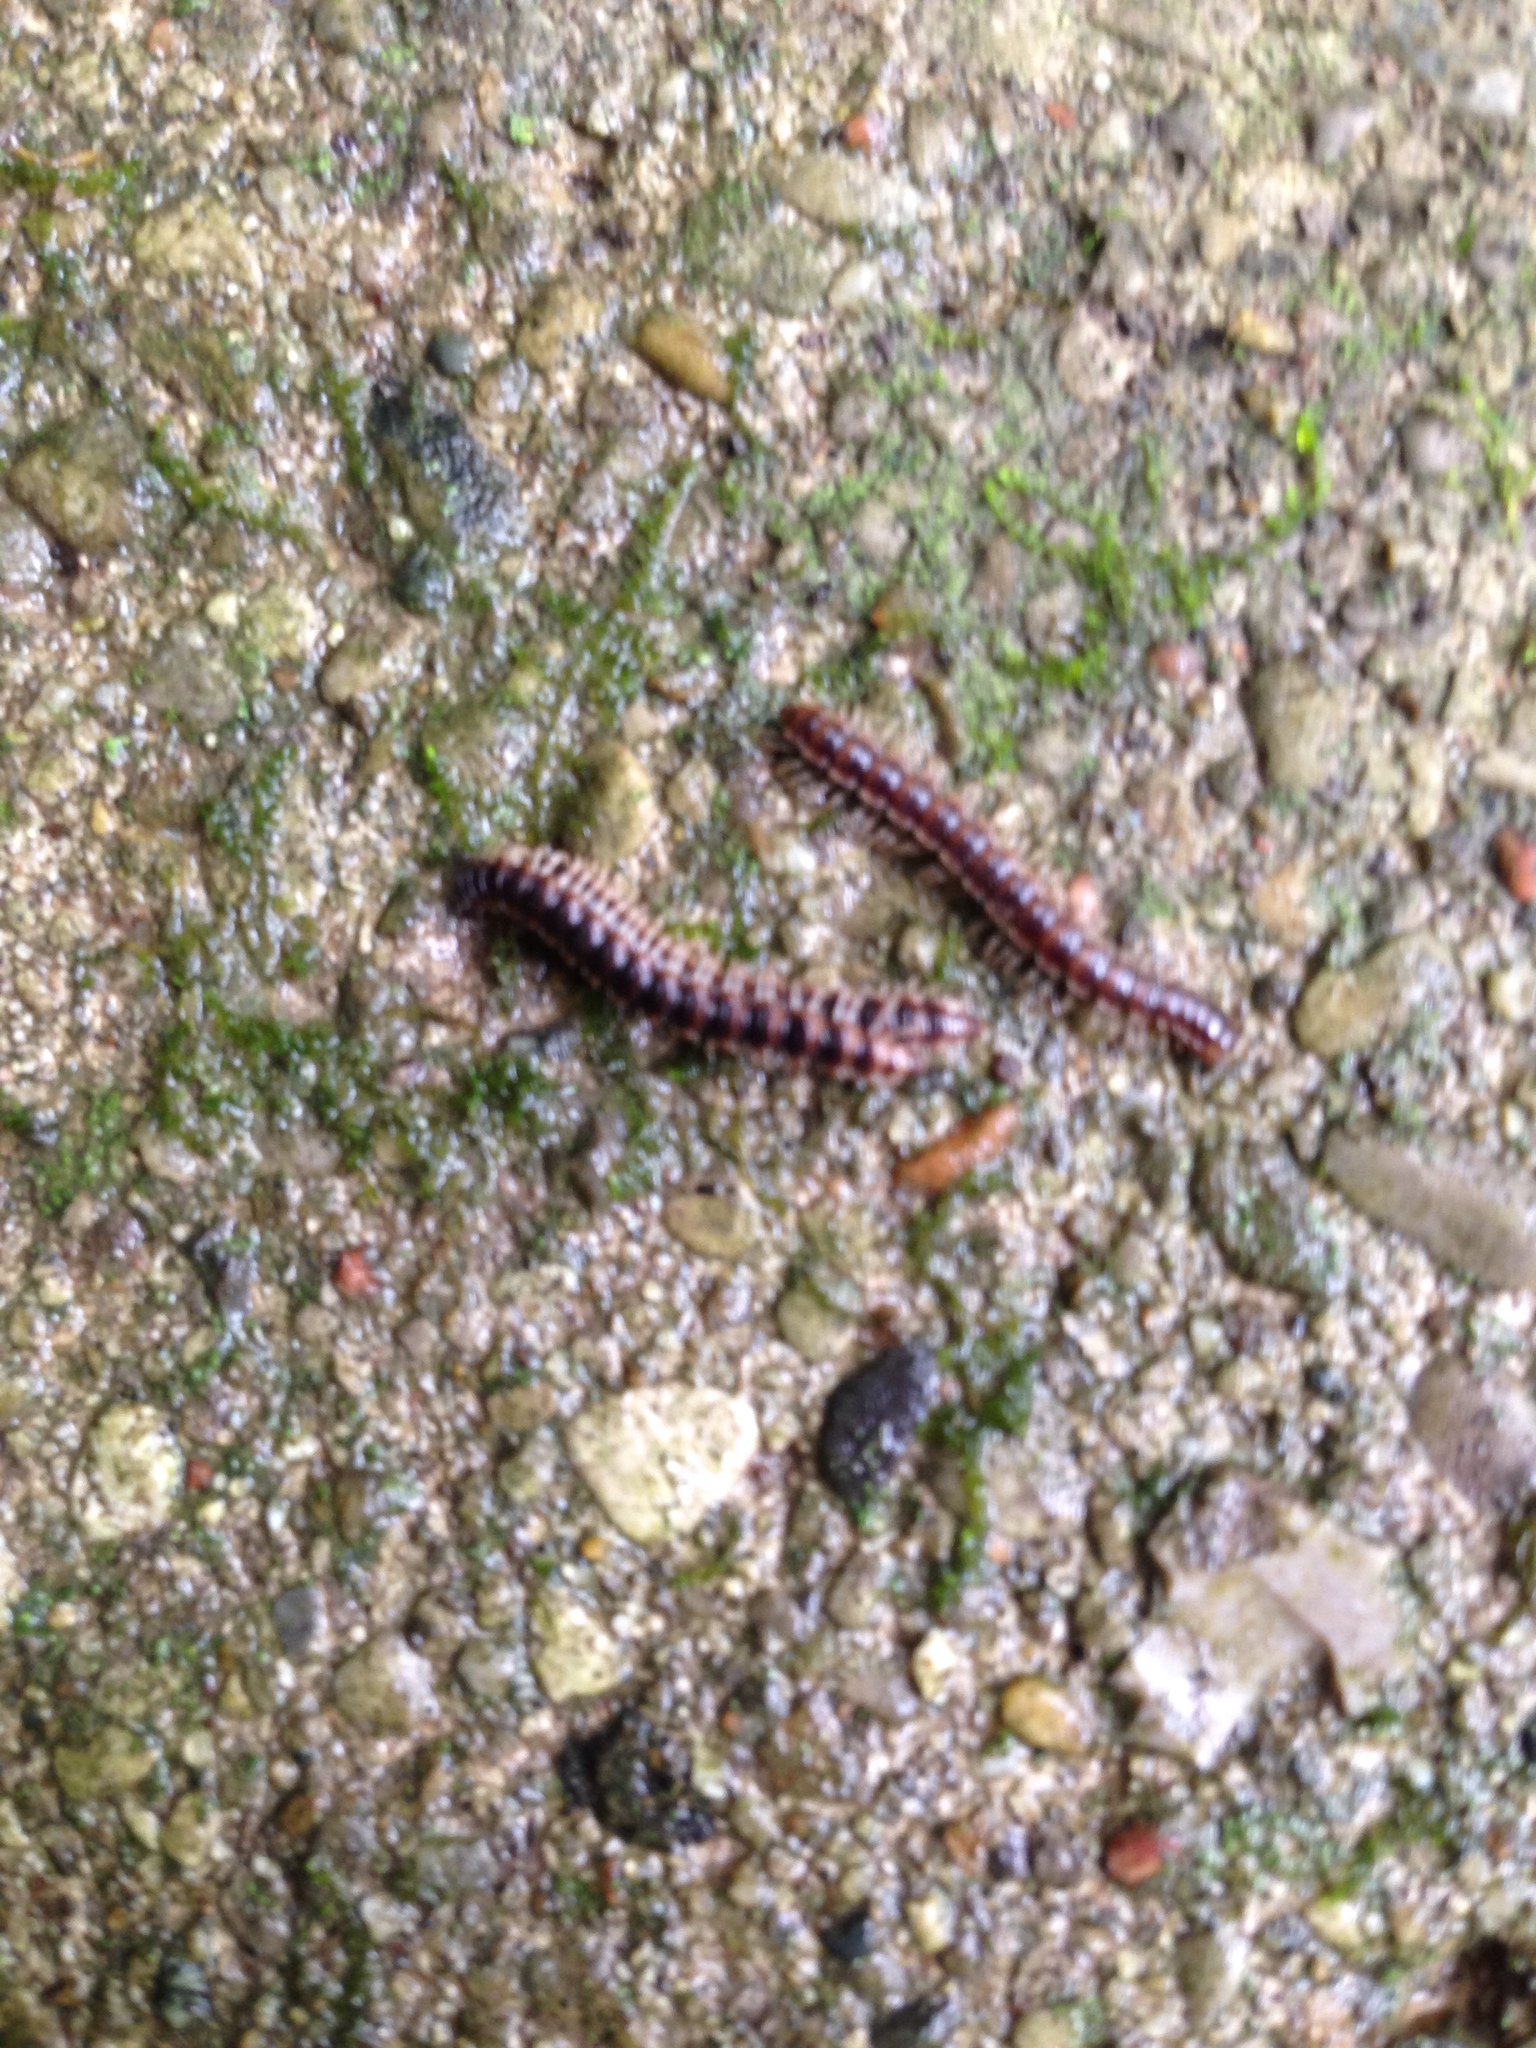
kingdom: Animalia
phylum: Arthropoda
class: Diplopoda
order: Polydesmida
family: Paradoxosomatidae
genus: Oxidus
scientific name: Oxidus gracilis
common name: Greenhouse millipede
